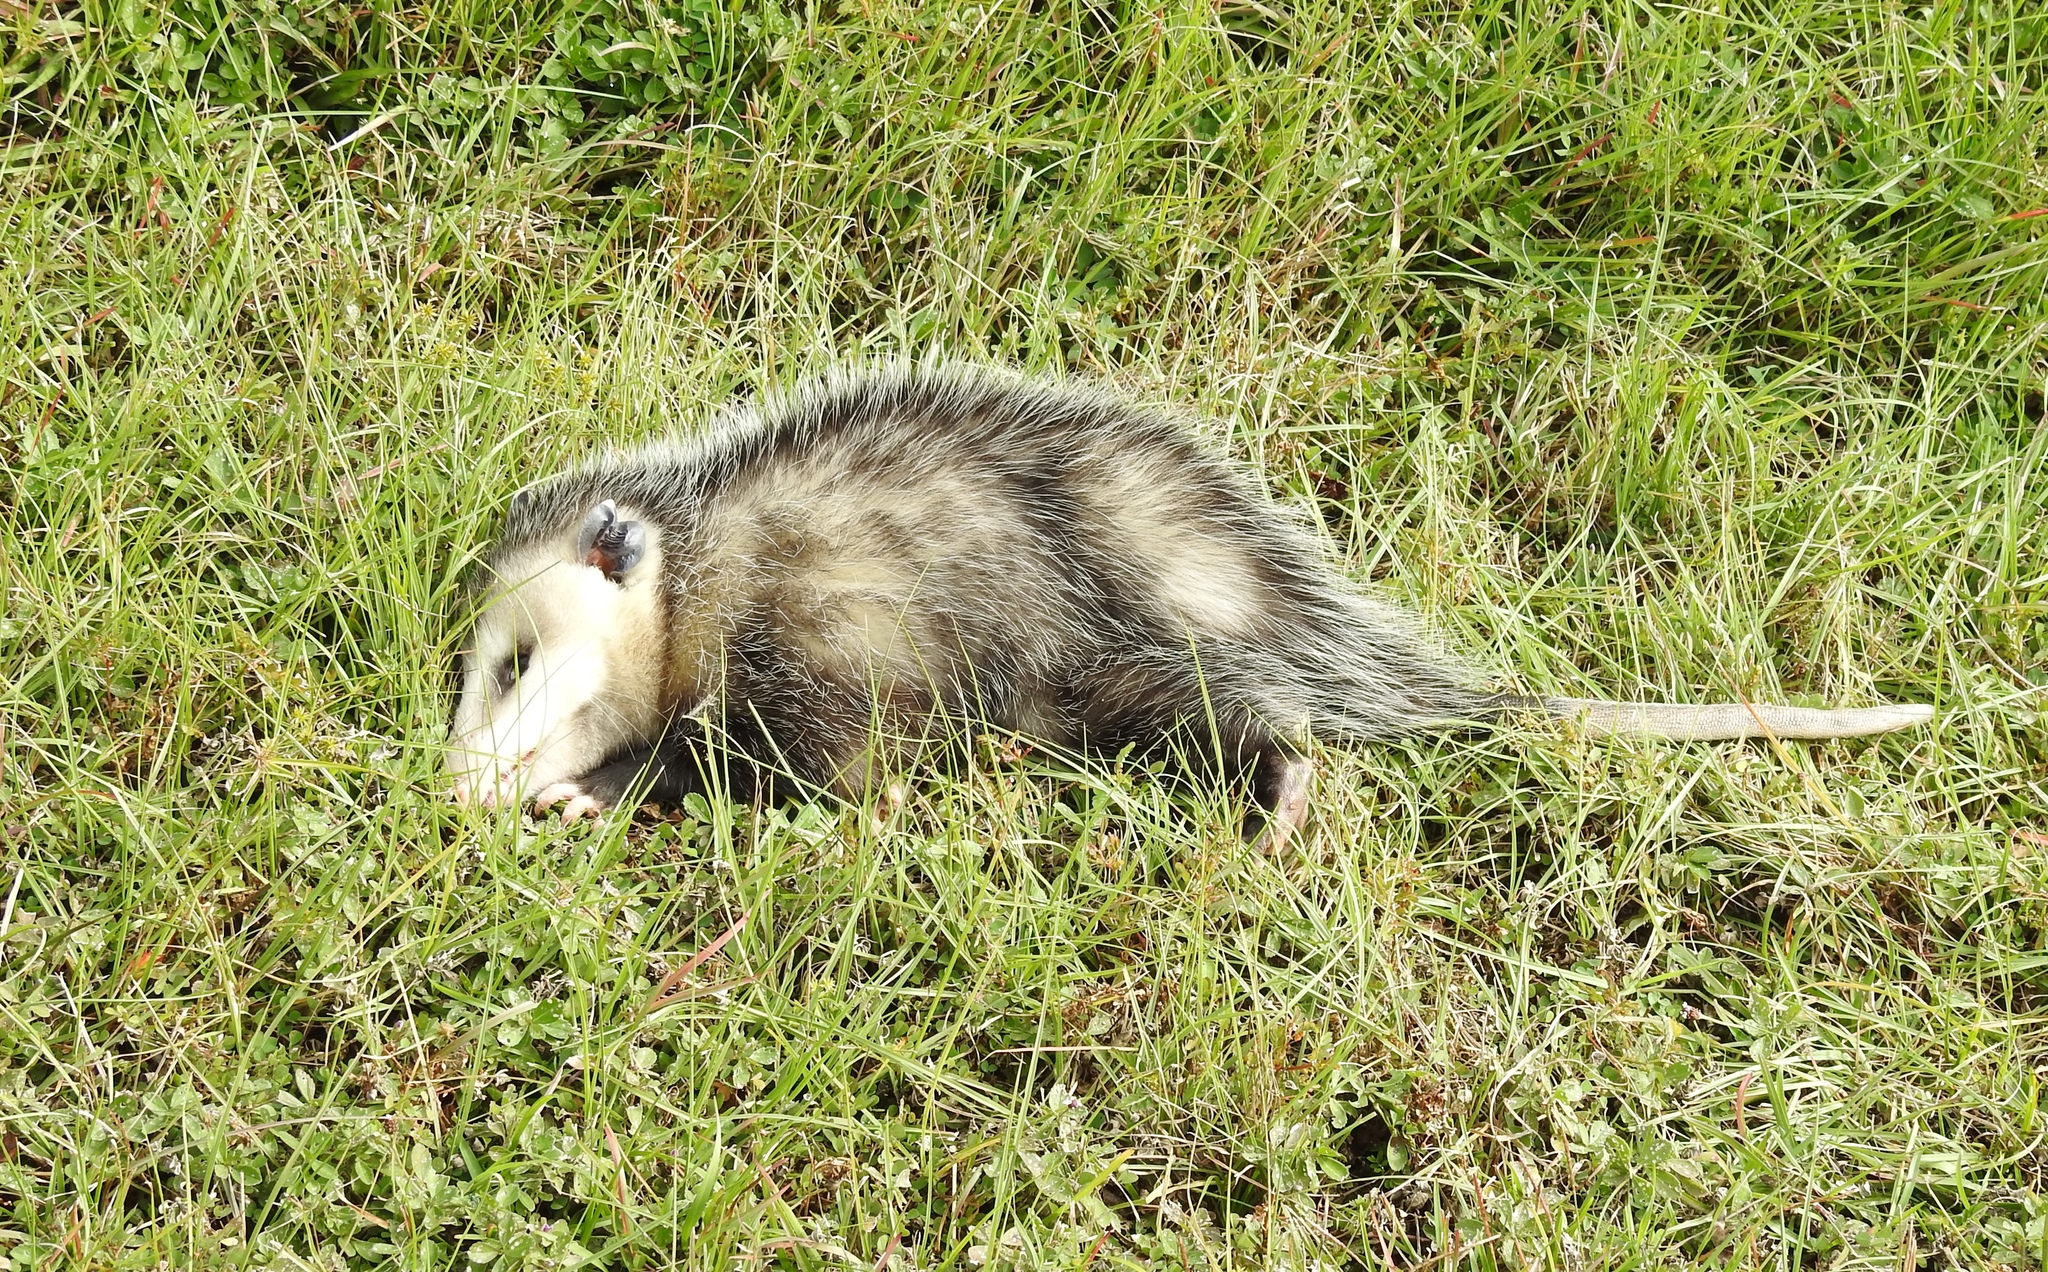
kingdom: Animalia
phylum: Chordata
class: Mammalia
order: Didelphimorphia
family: Didelphidae
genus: Didelphis
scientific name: Didelphis virginiana
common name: Virginia opossum
